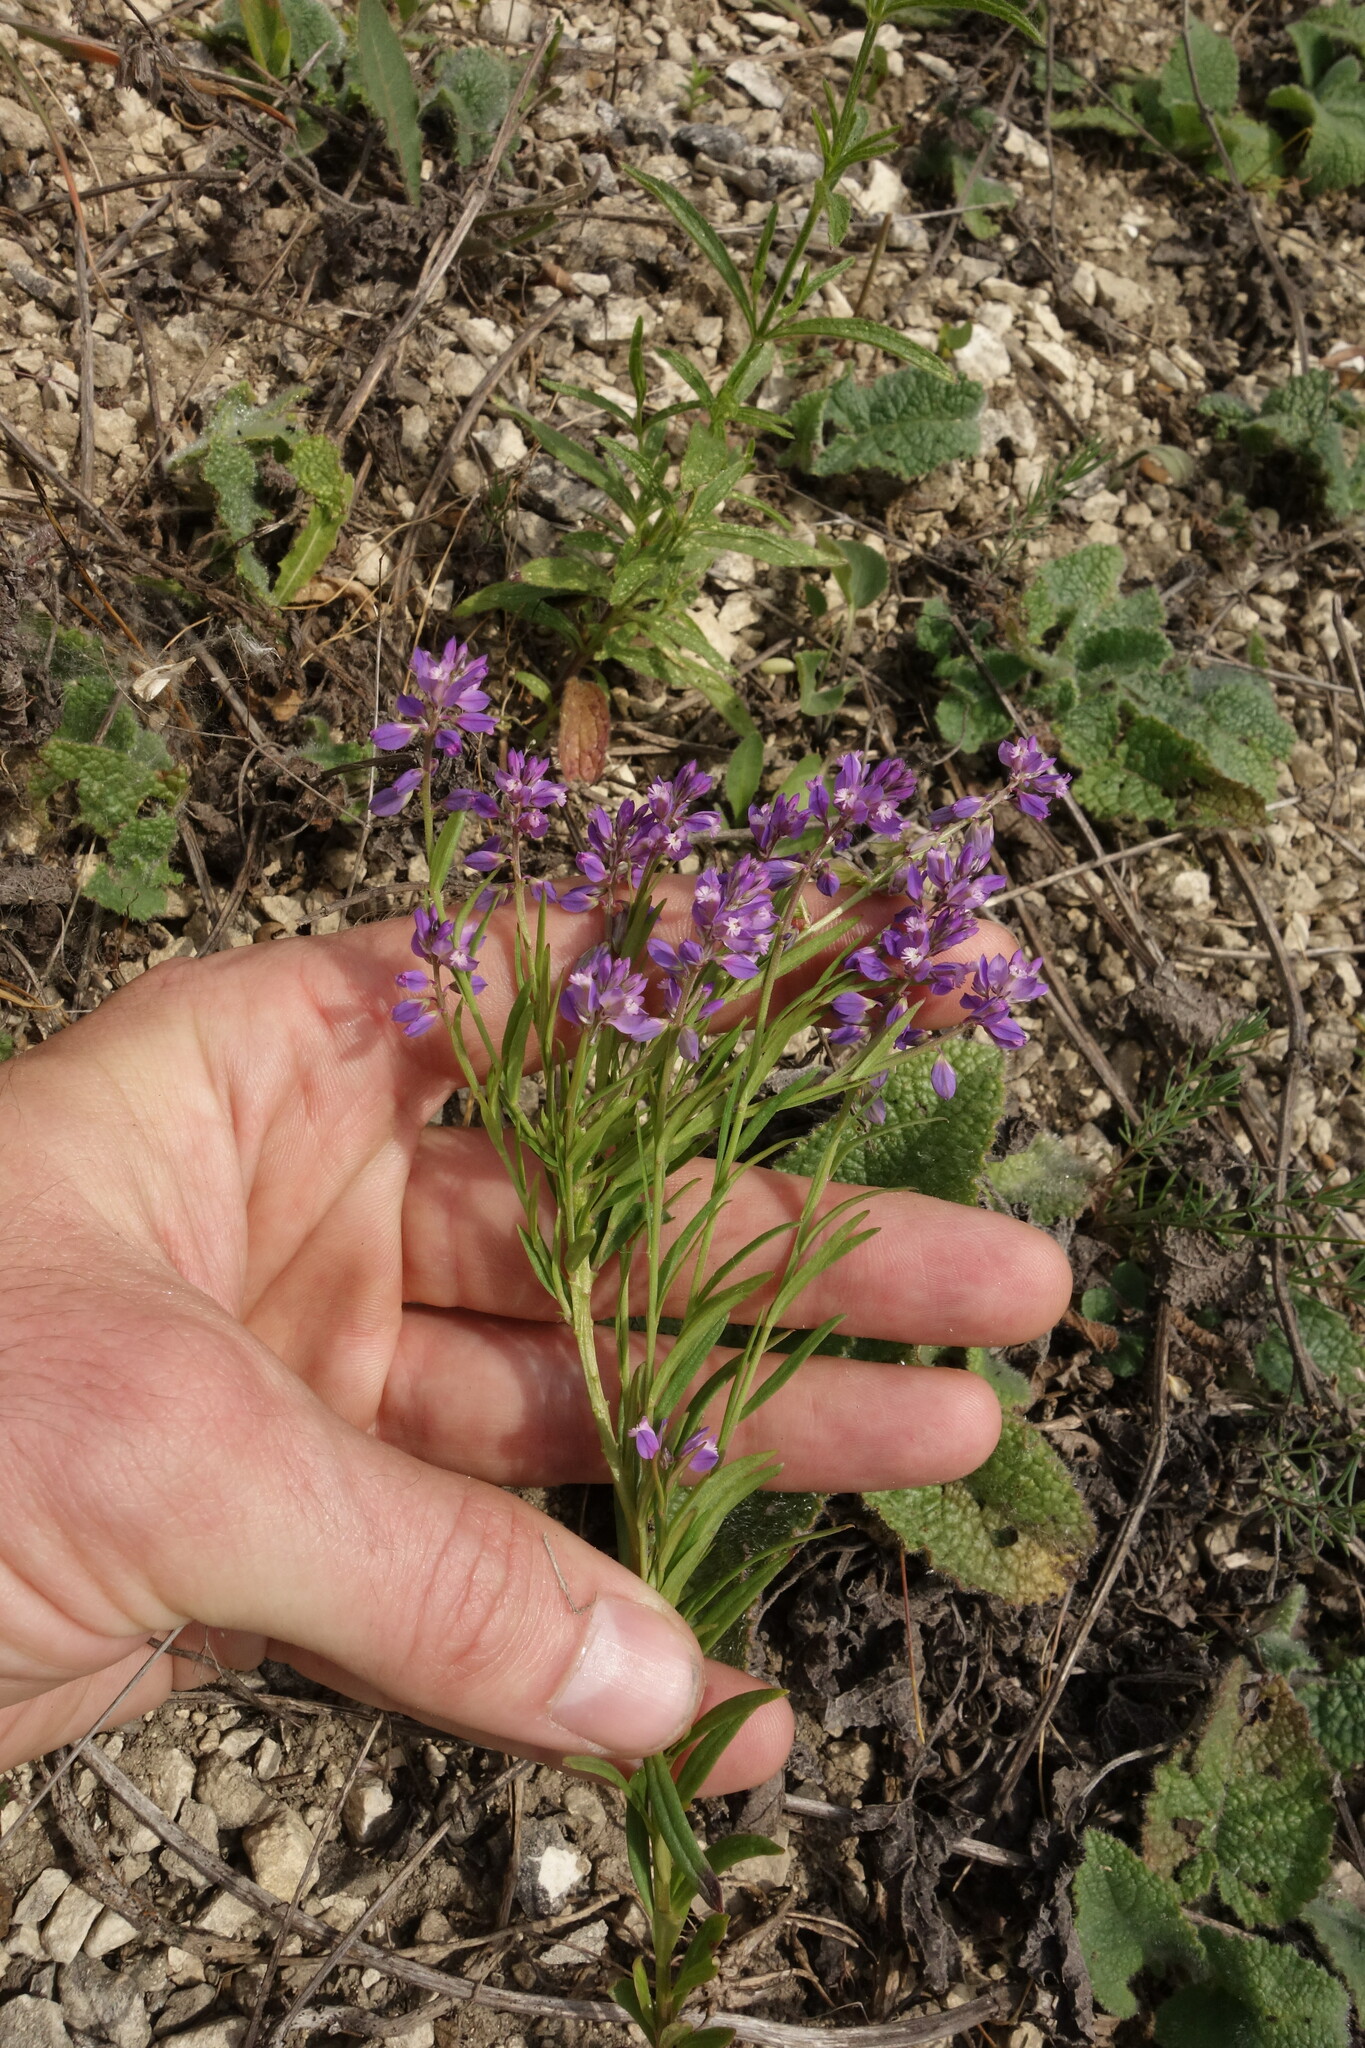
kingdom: Plantae
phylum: Tracheophyta
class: Magnoliopsida
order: Fabales
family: Polygalaceae
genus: Polygala
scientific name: Polygala comosa
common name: Tufted milkwort
